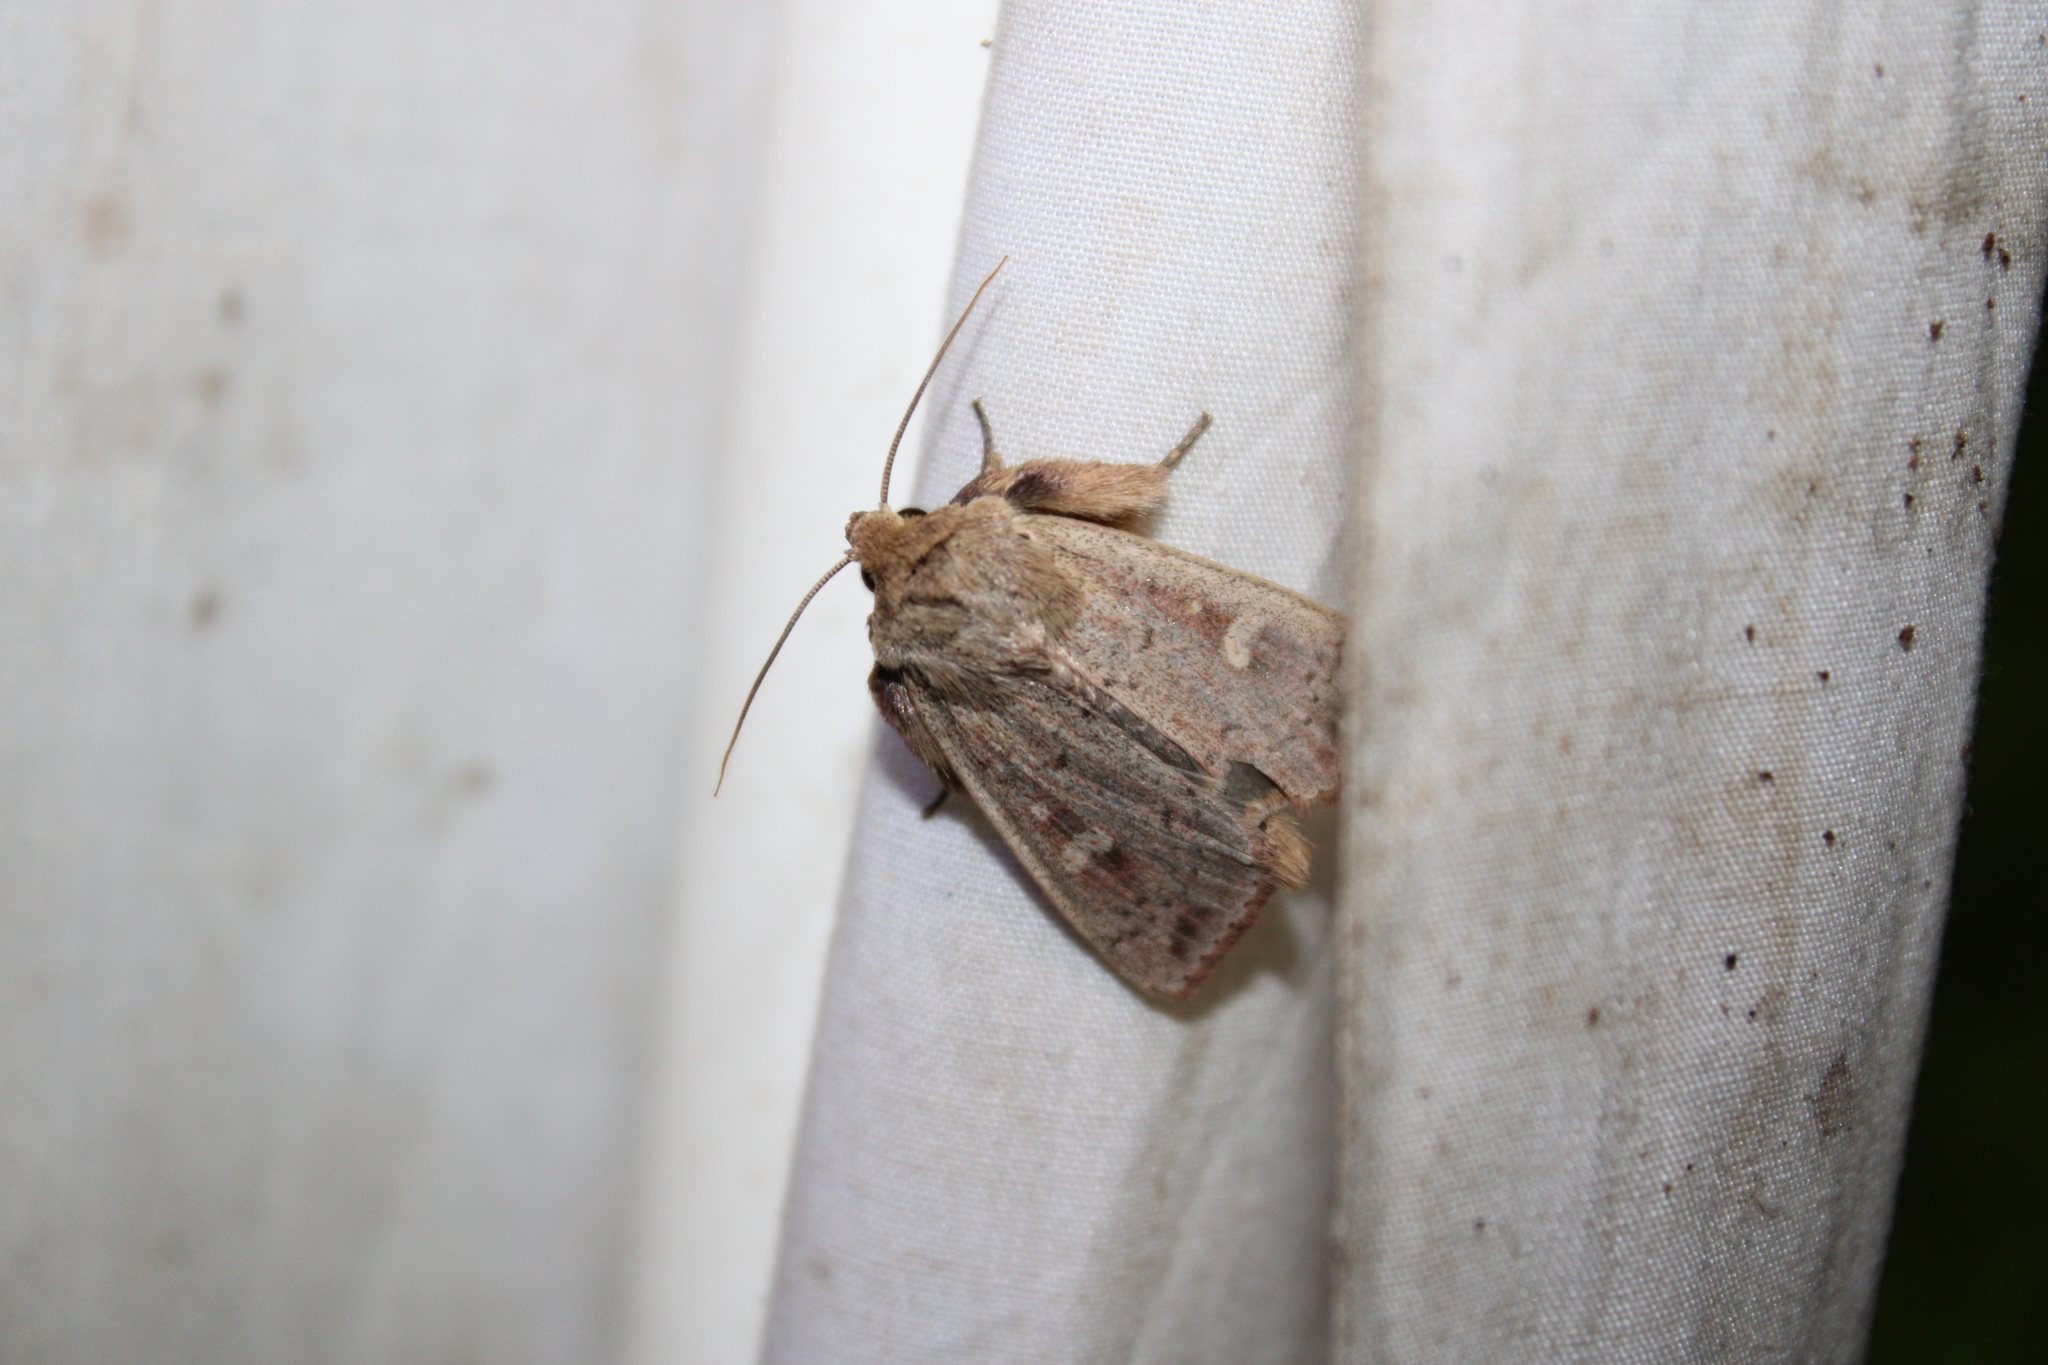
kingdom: Animalia
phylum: Arthropoda
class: Insecta
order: Lepidoptera
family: Noctuidae
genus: Leucania
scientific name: Leucania pseudargyria
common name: False wainscot
